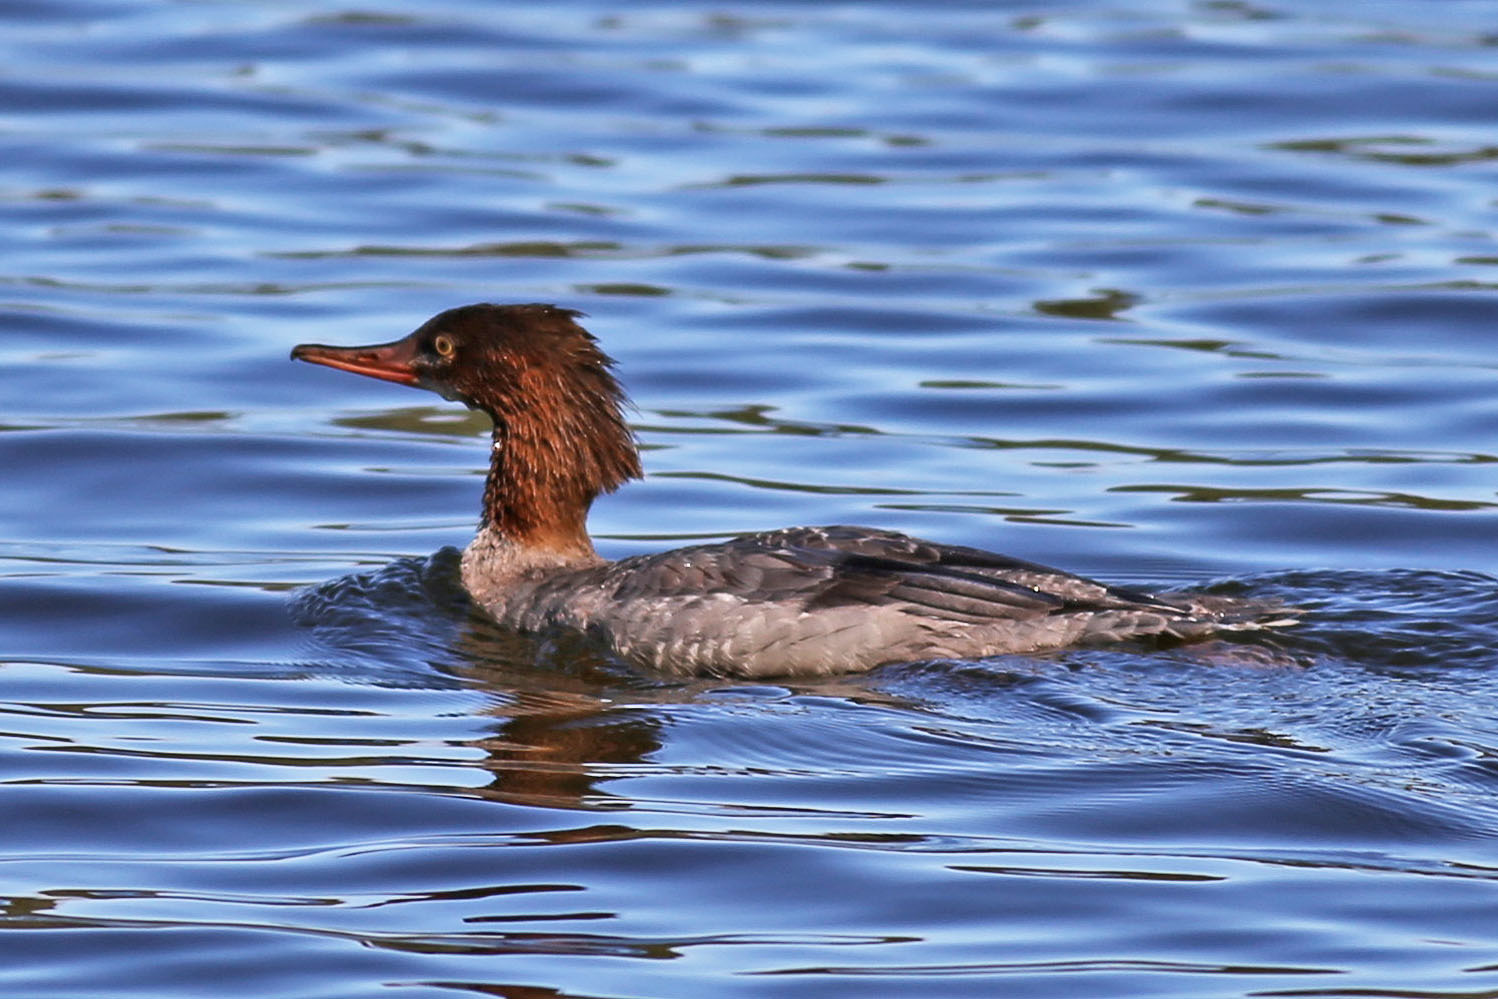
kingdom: Animalia
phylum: Chordata
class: Aves
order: Anseriformes
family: Anatidae
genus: Mergus
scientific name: Mergus merganser
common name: Common merganser
